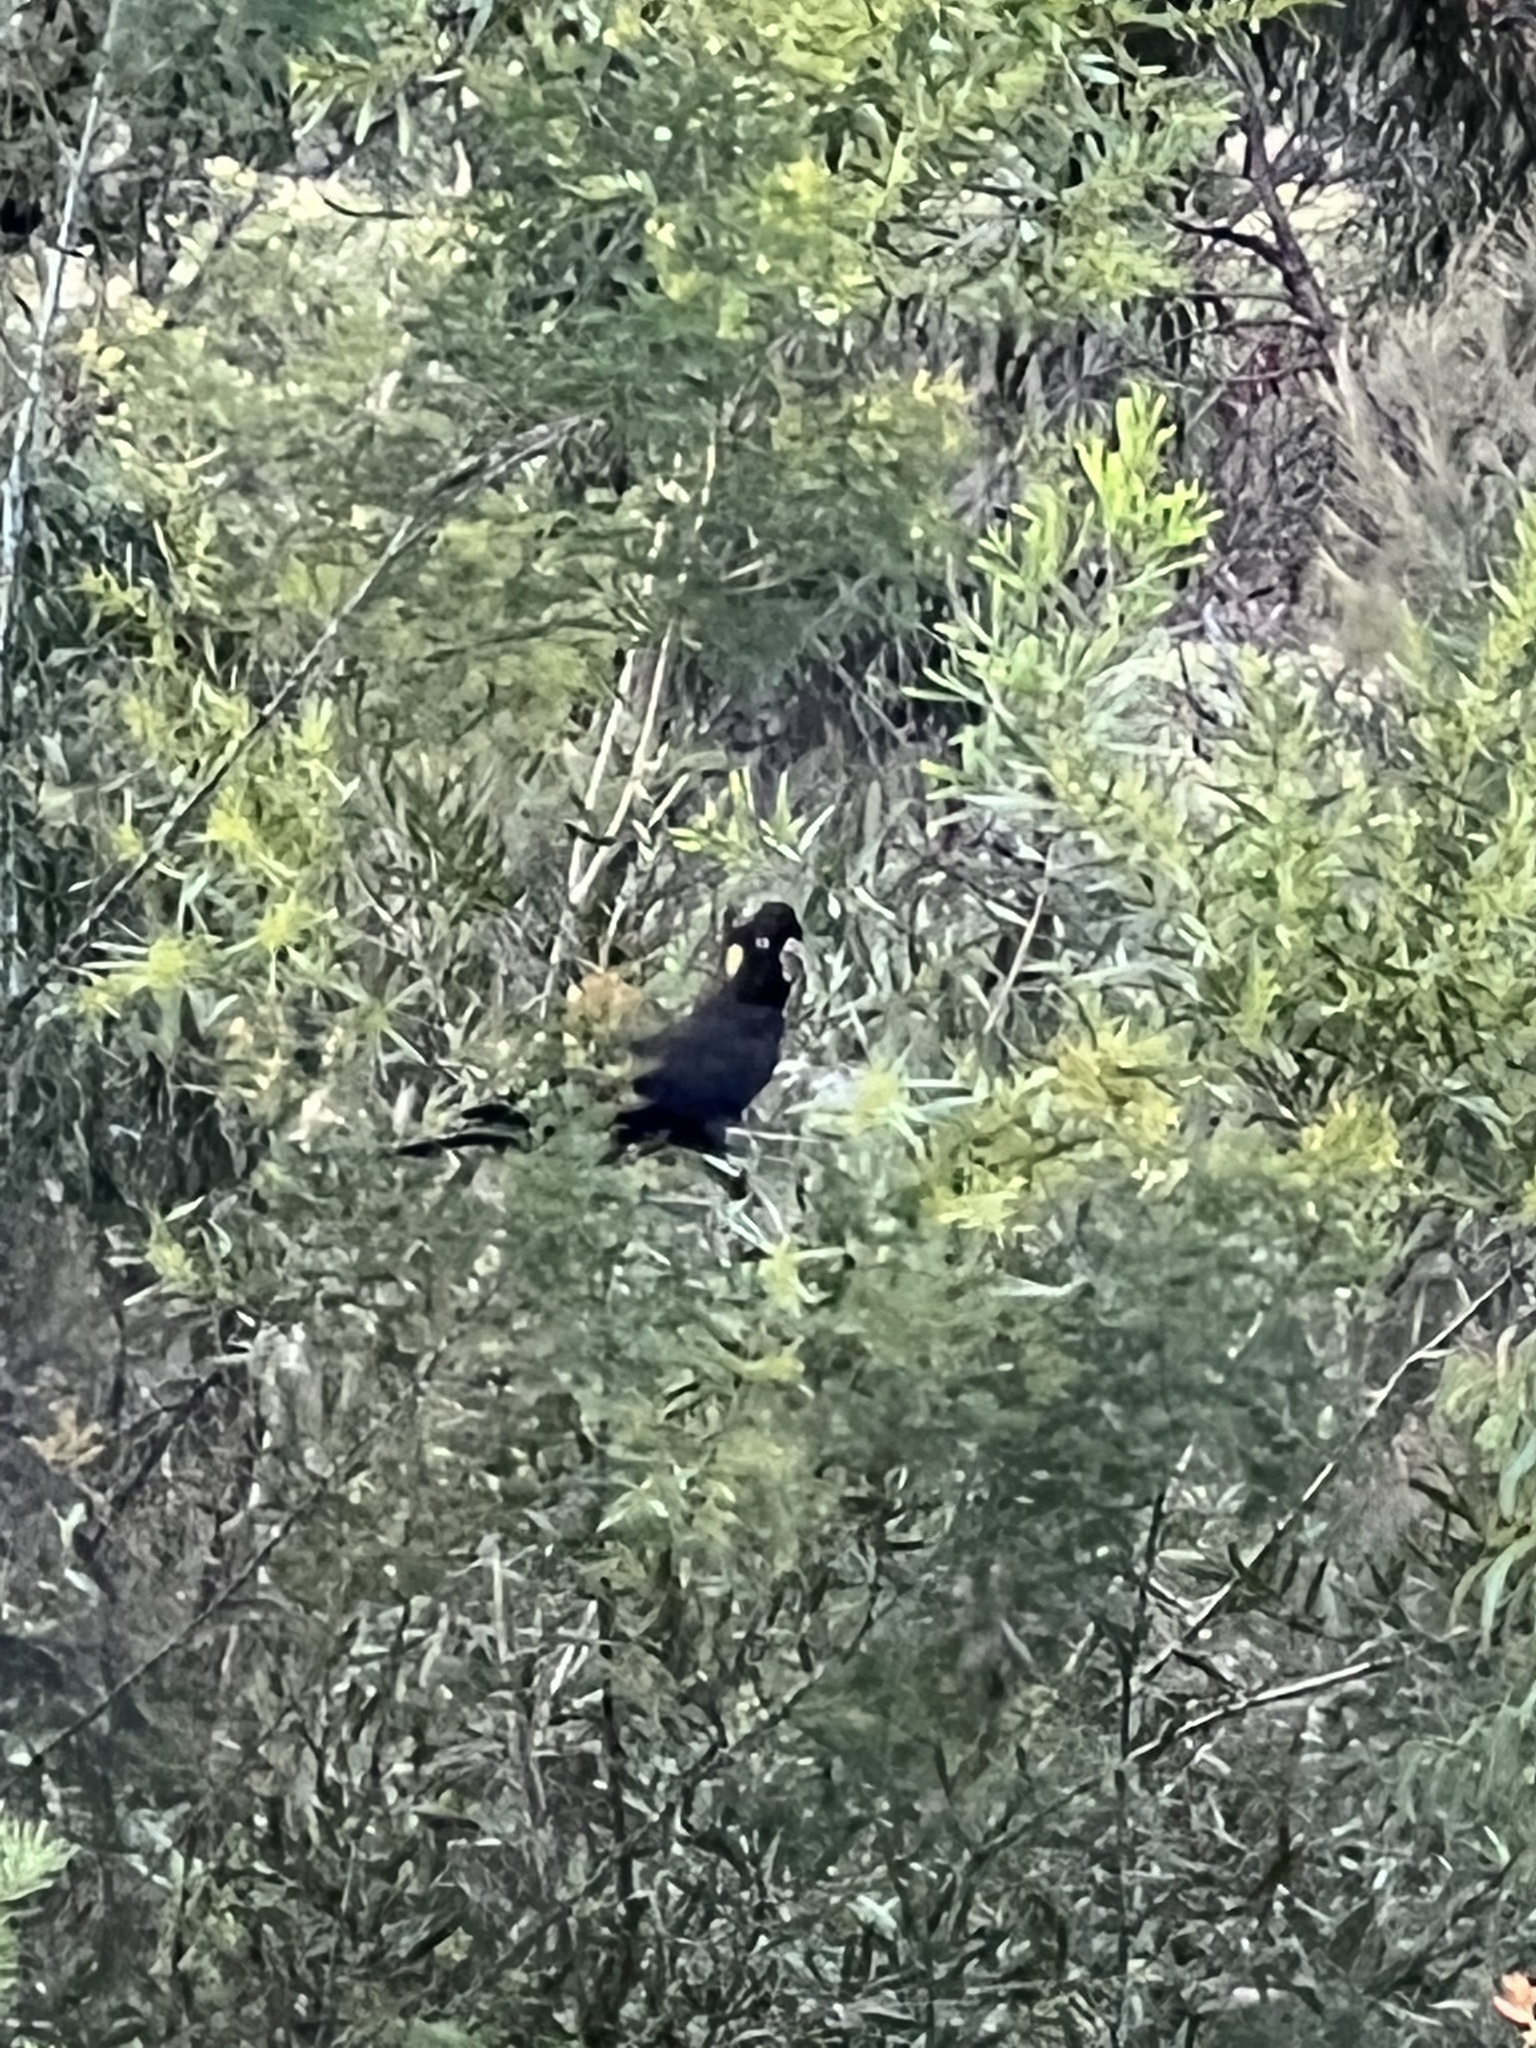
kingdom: Animalia
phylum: Chordata
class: Aves
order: Psittaciformes
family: Cacatuidae
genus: Zanda
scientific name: Zanda funerea
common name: Yellow-tailed black-cockatoo
